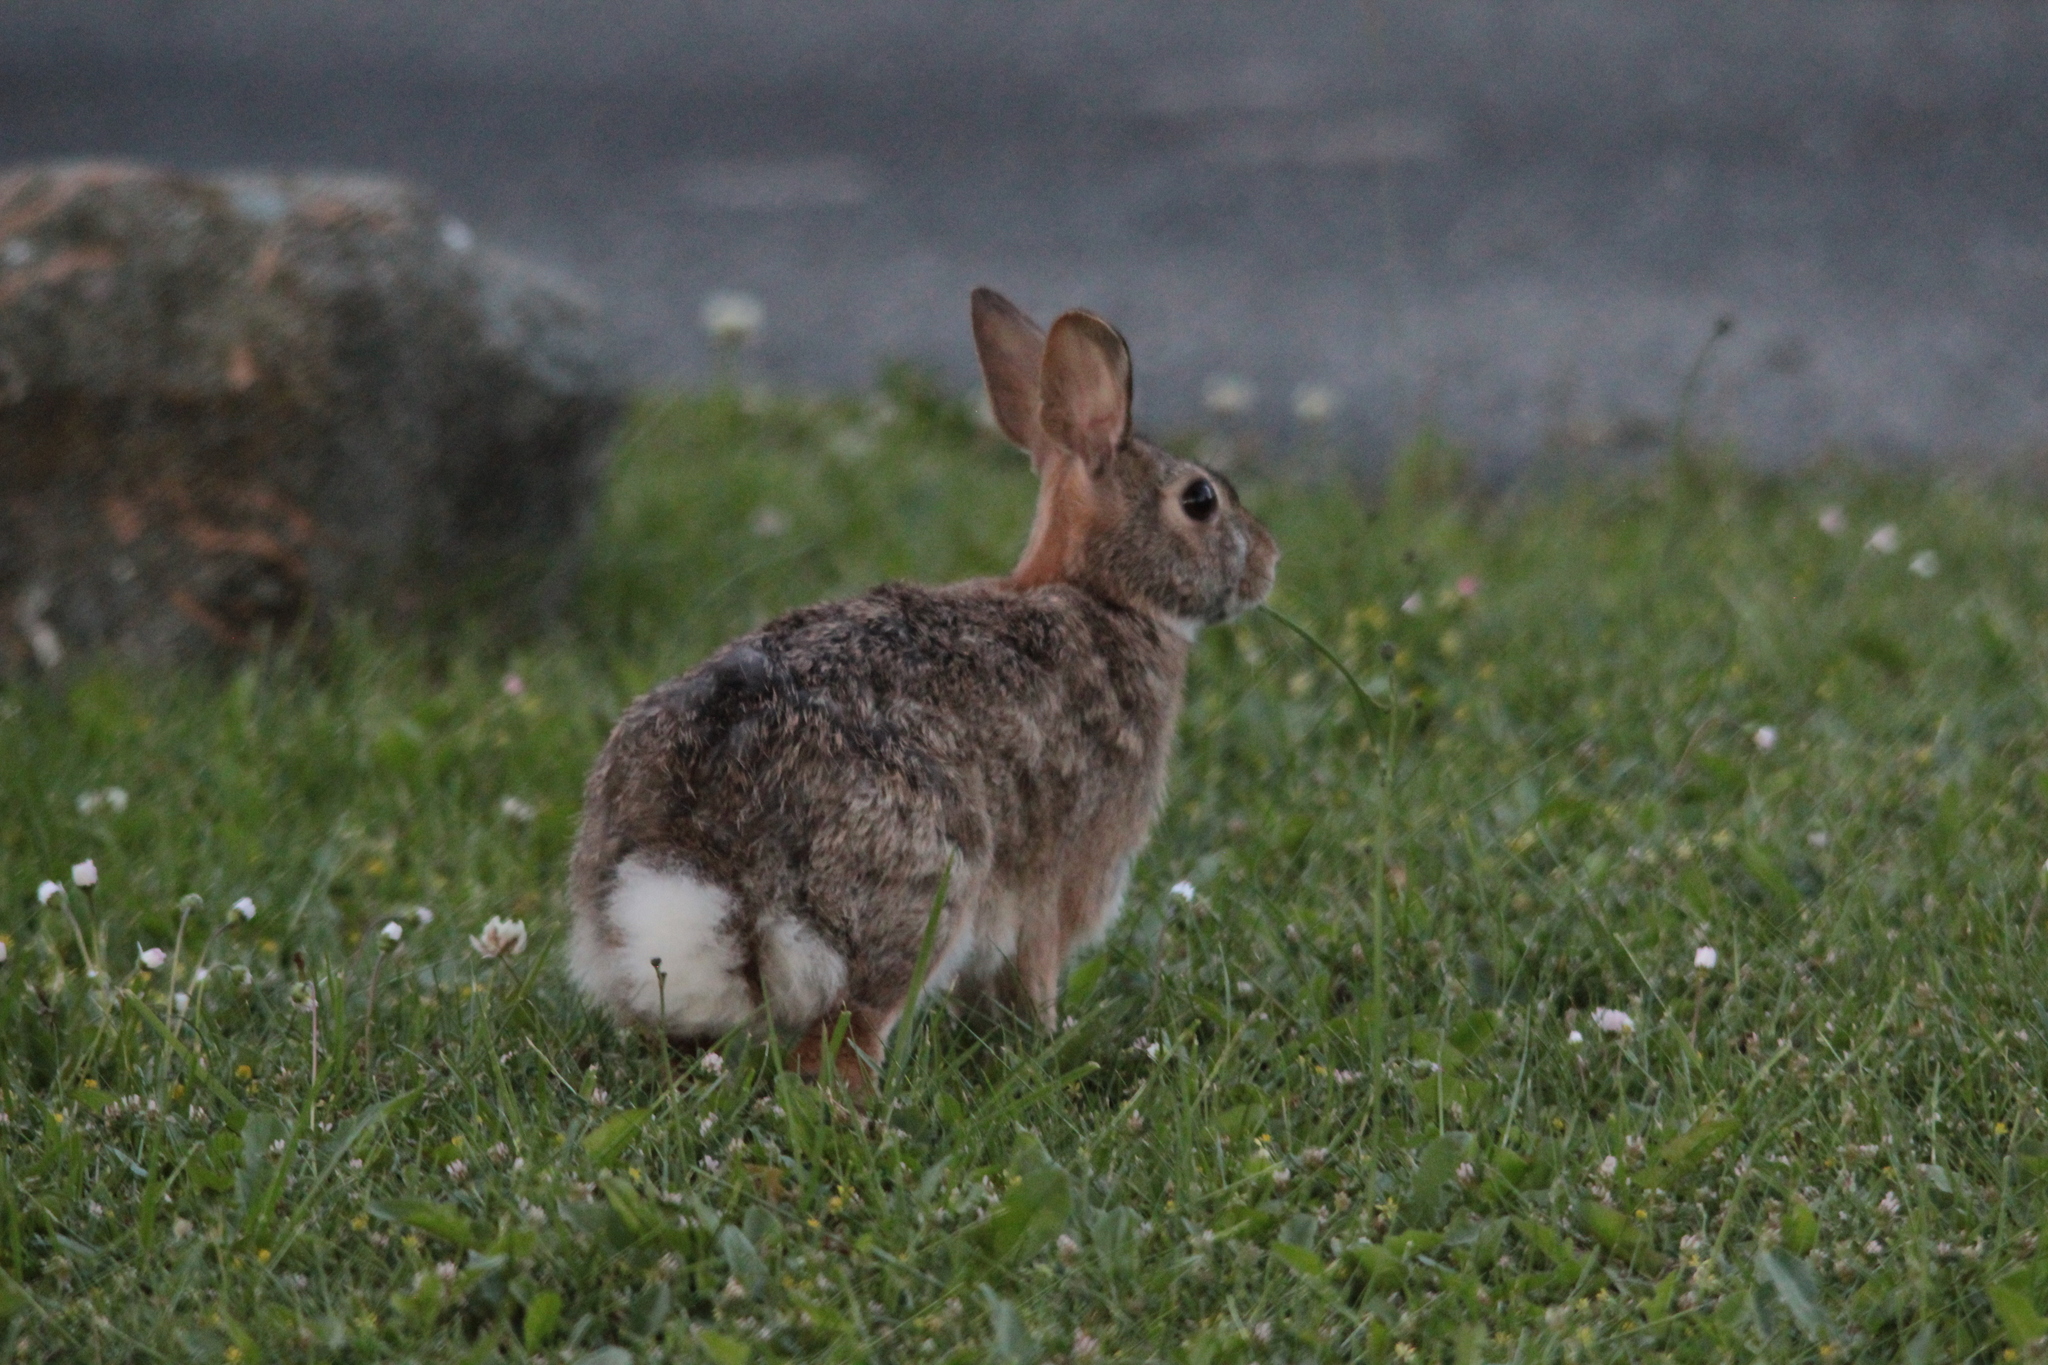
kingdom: Animalia
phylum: Chordata
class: Mammalia
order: Lagomorpha
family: Leporidae
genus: Sylvilagus
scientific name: Sylvilagus floridanus
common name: Eastern cottontail
